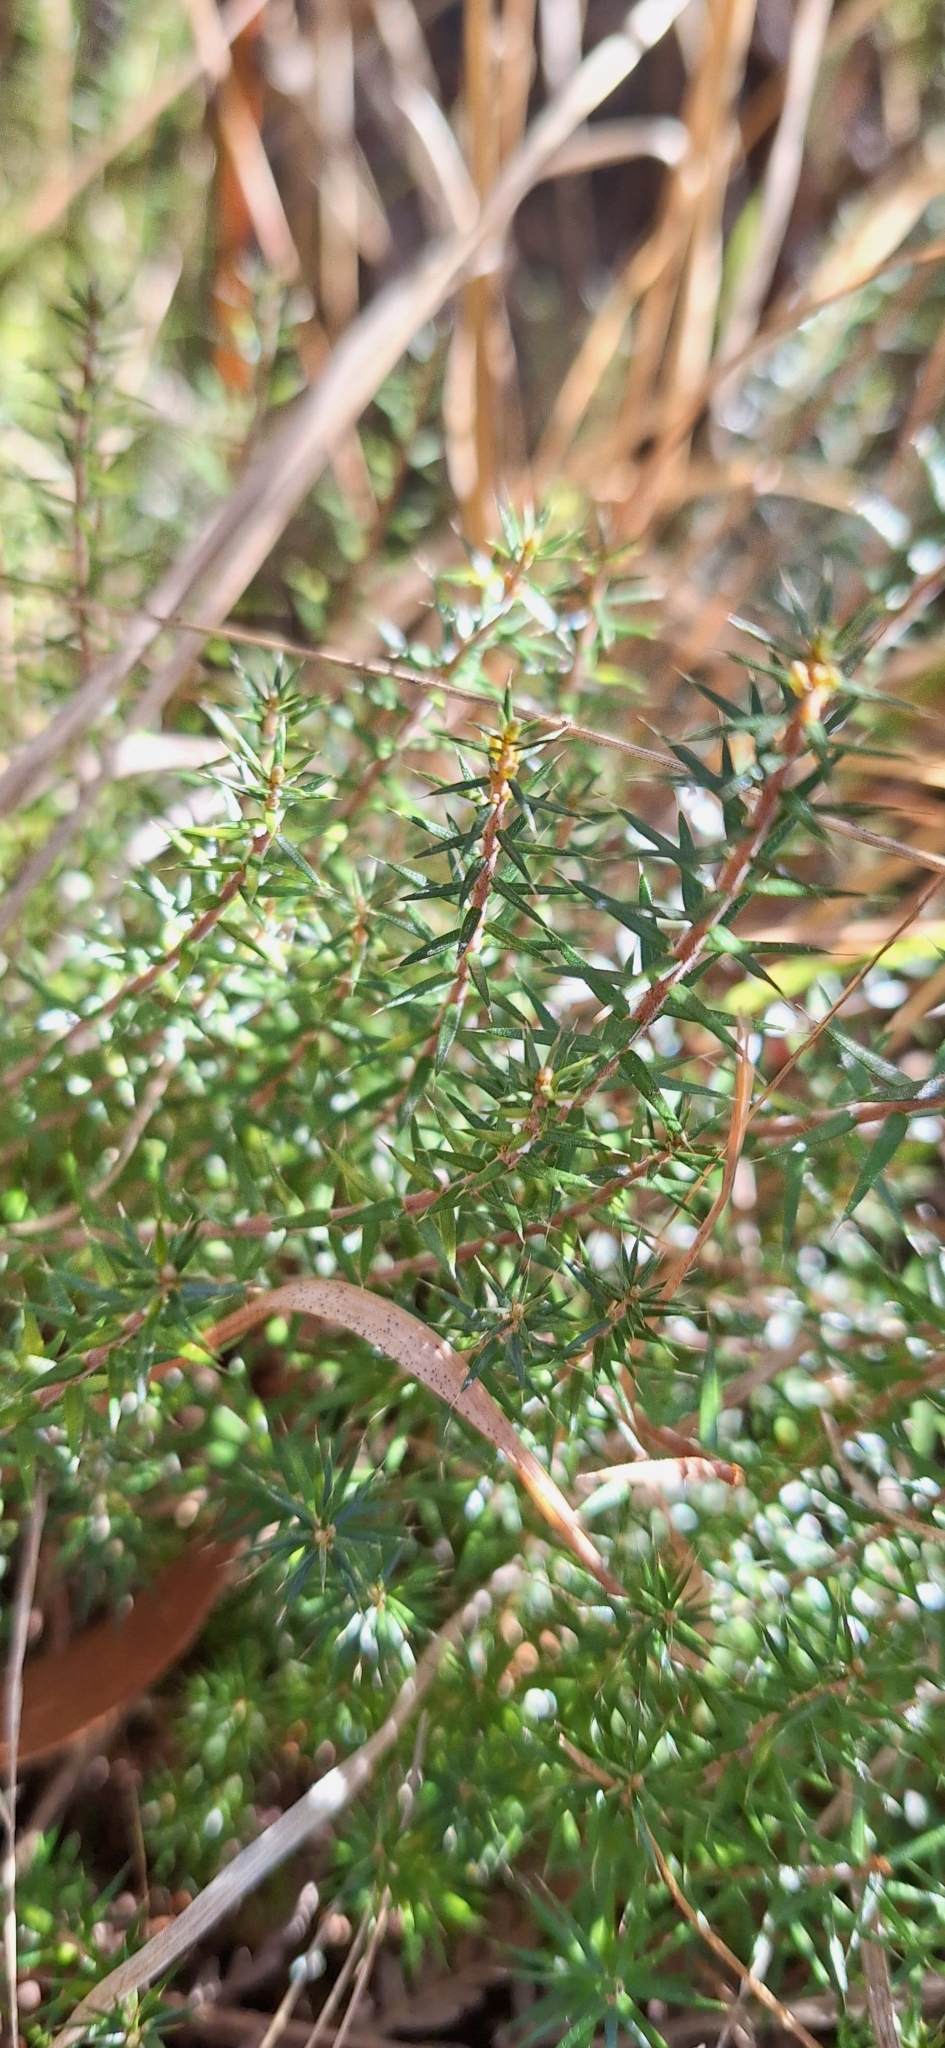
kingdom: Plantae
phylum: Tracheophyta
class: Magnoliopsida
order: Ericales
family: Ericaceae
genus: Acrotriche
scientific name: Acrotriche serrulata
